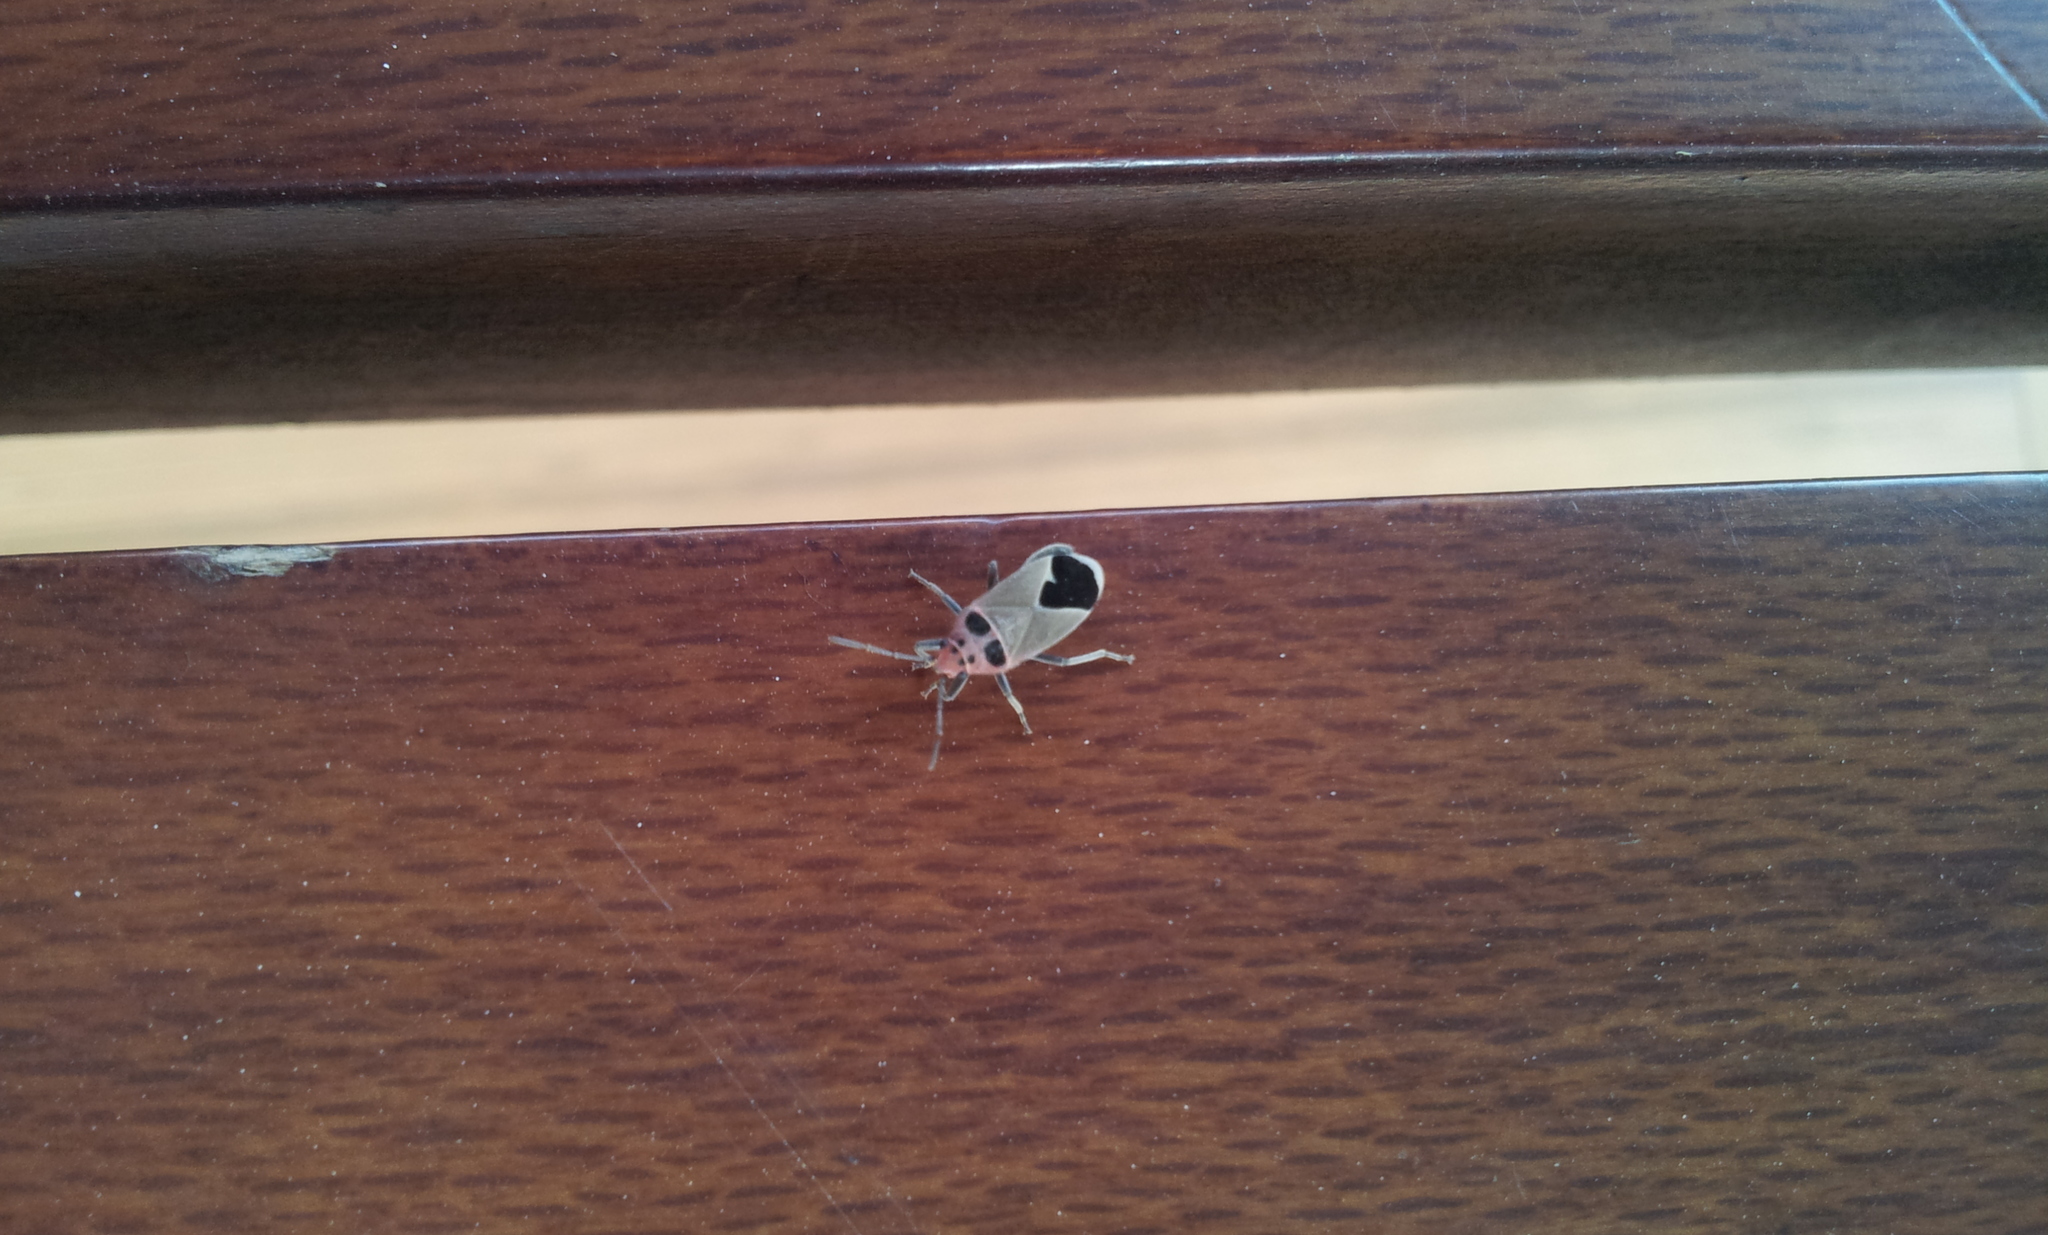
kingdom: Animalia
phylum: Arthropoda
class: Insecta
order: Hemiptera
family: Lygaeidae
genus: Graptostethus
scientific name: Graptostethus argentatus
